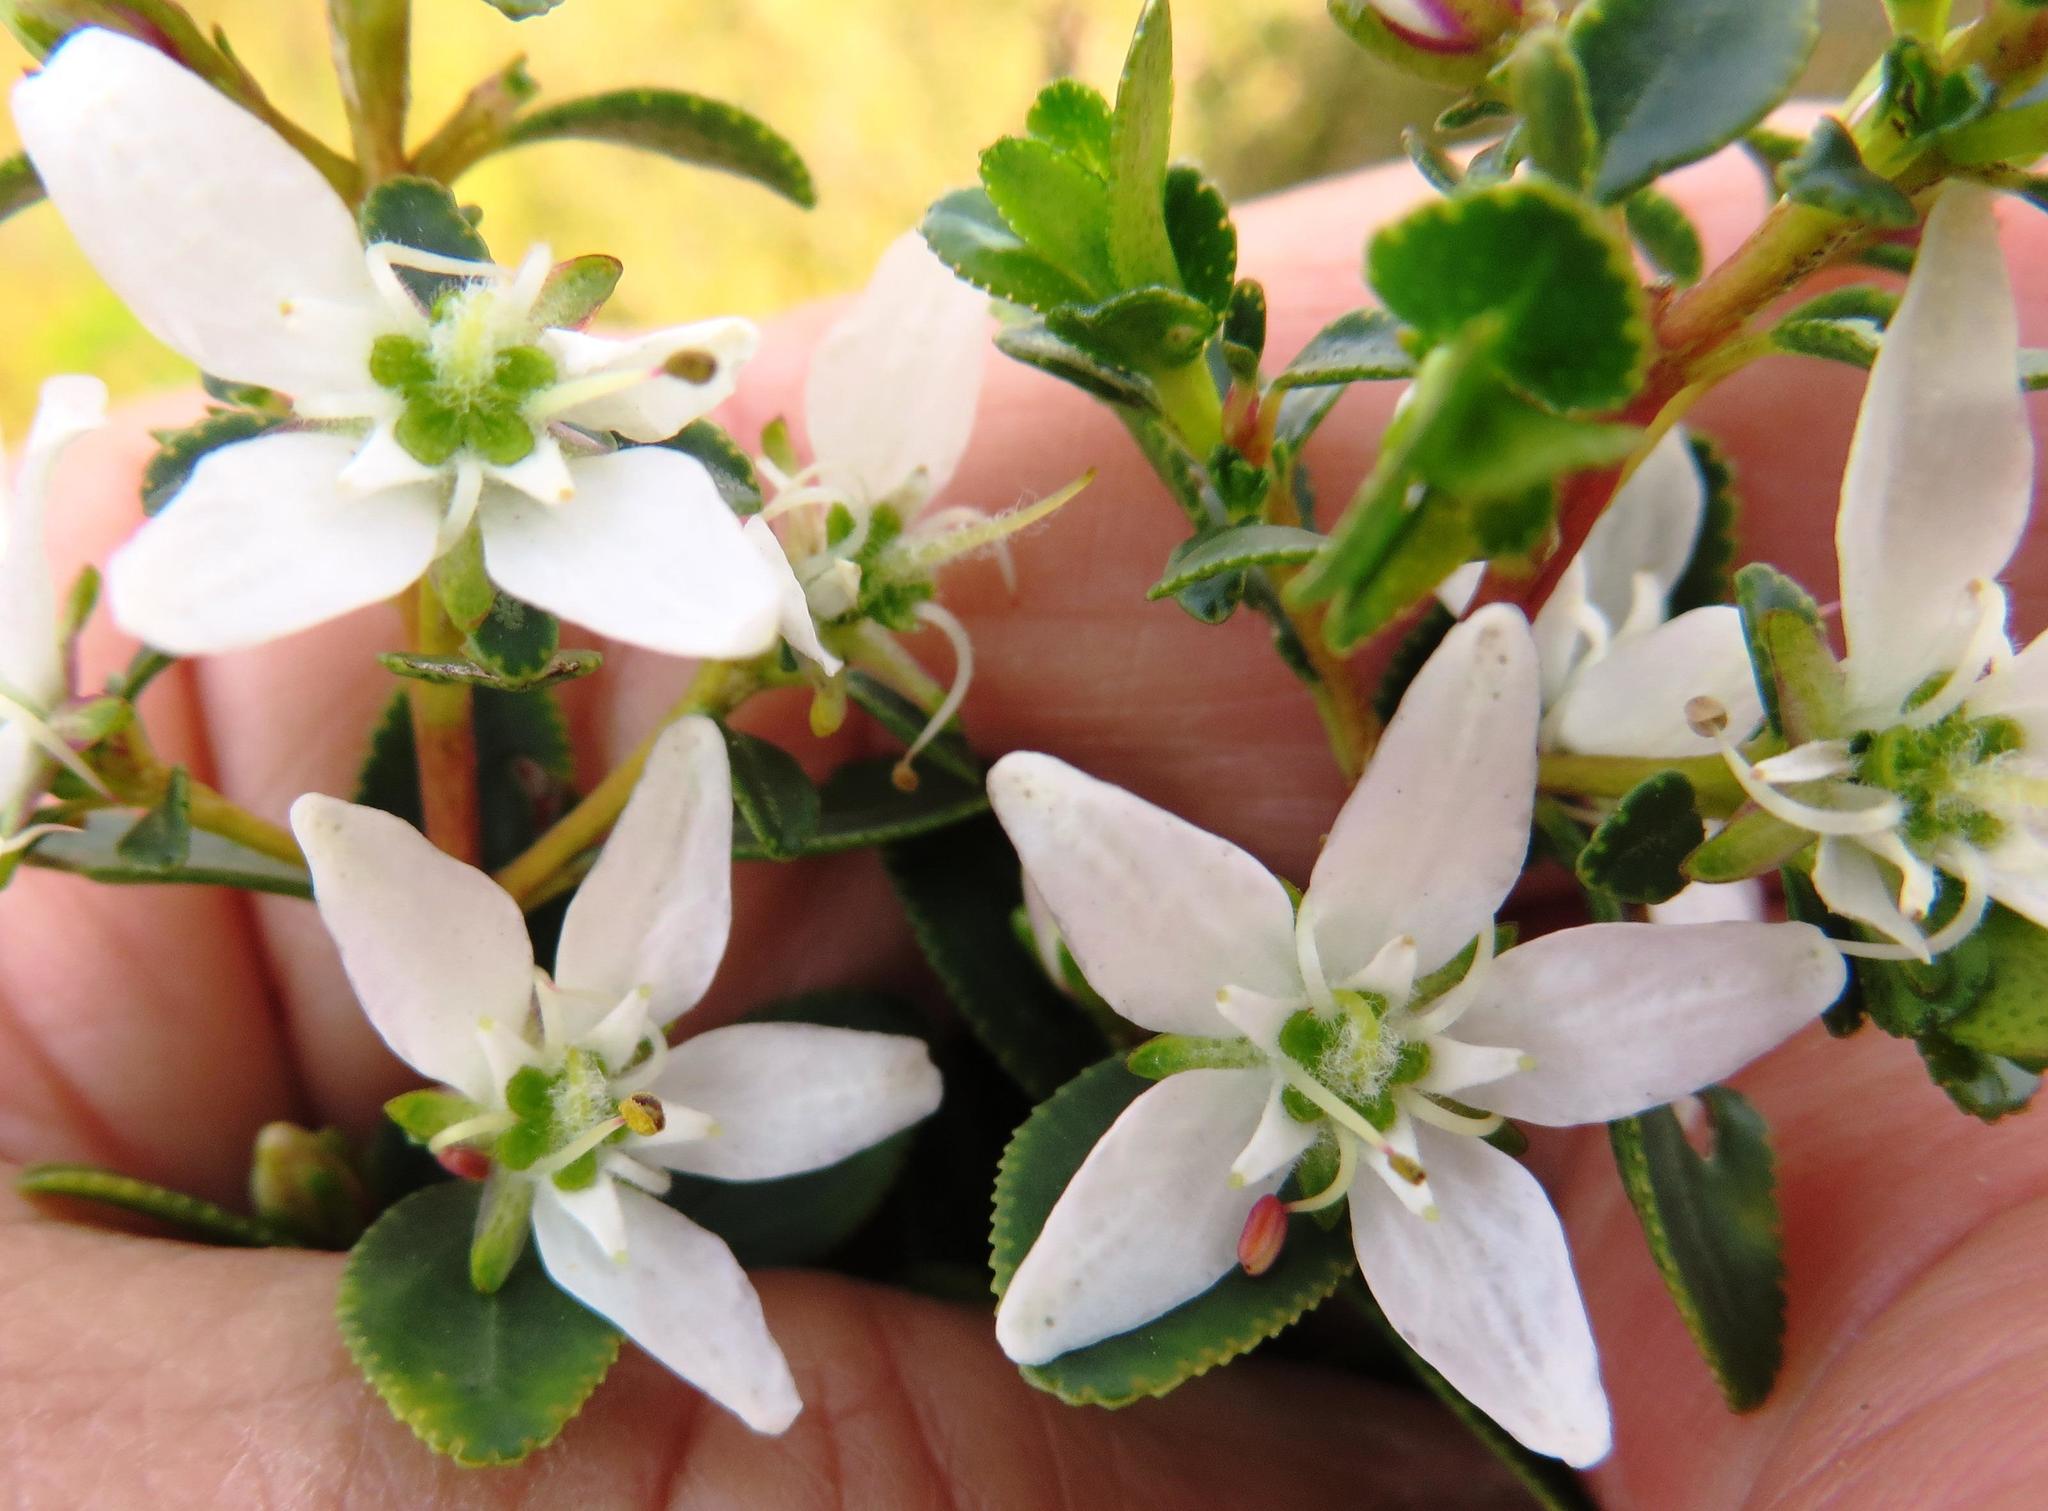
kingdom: Plantae
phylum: Tracheophyta
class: Magnoliopsida
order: Sapindales
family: Rutaceae
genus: Agathosma
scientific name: Agathosma crenulata
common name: Oval buchu
